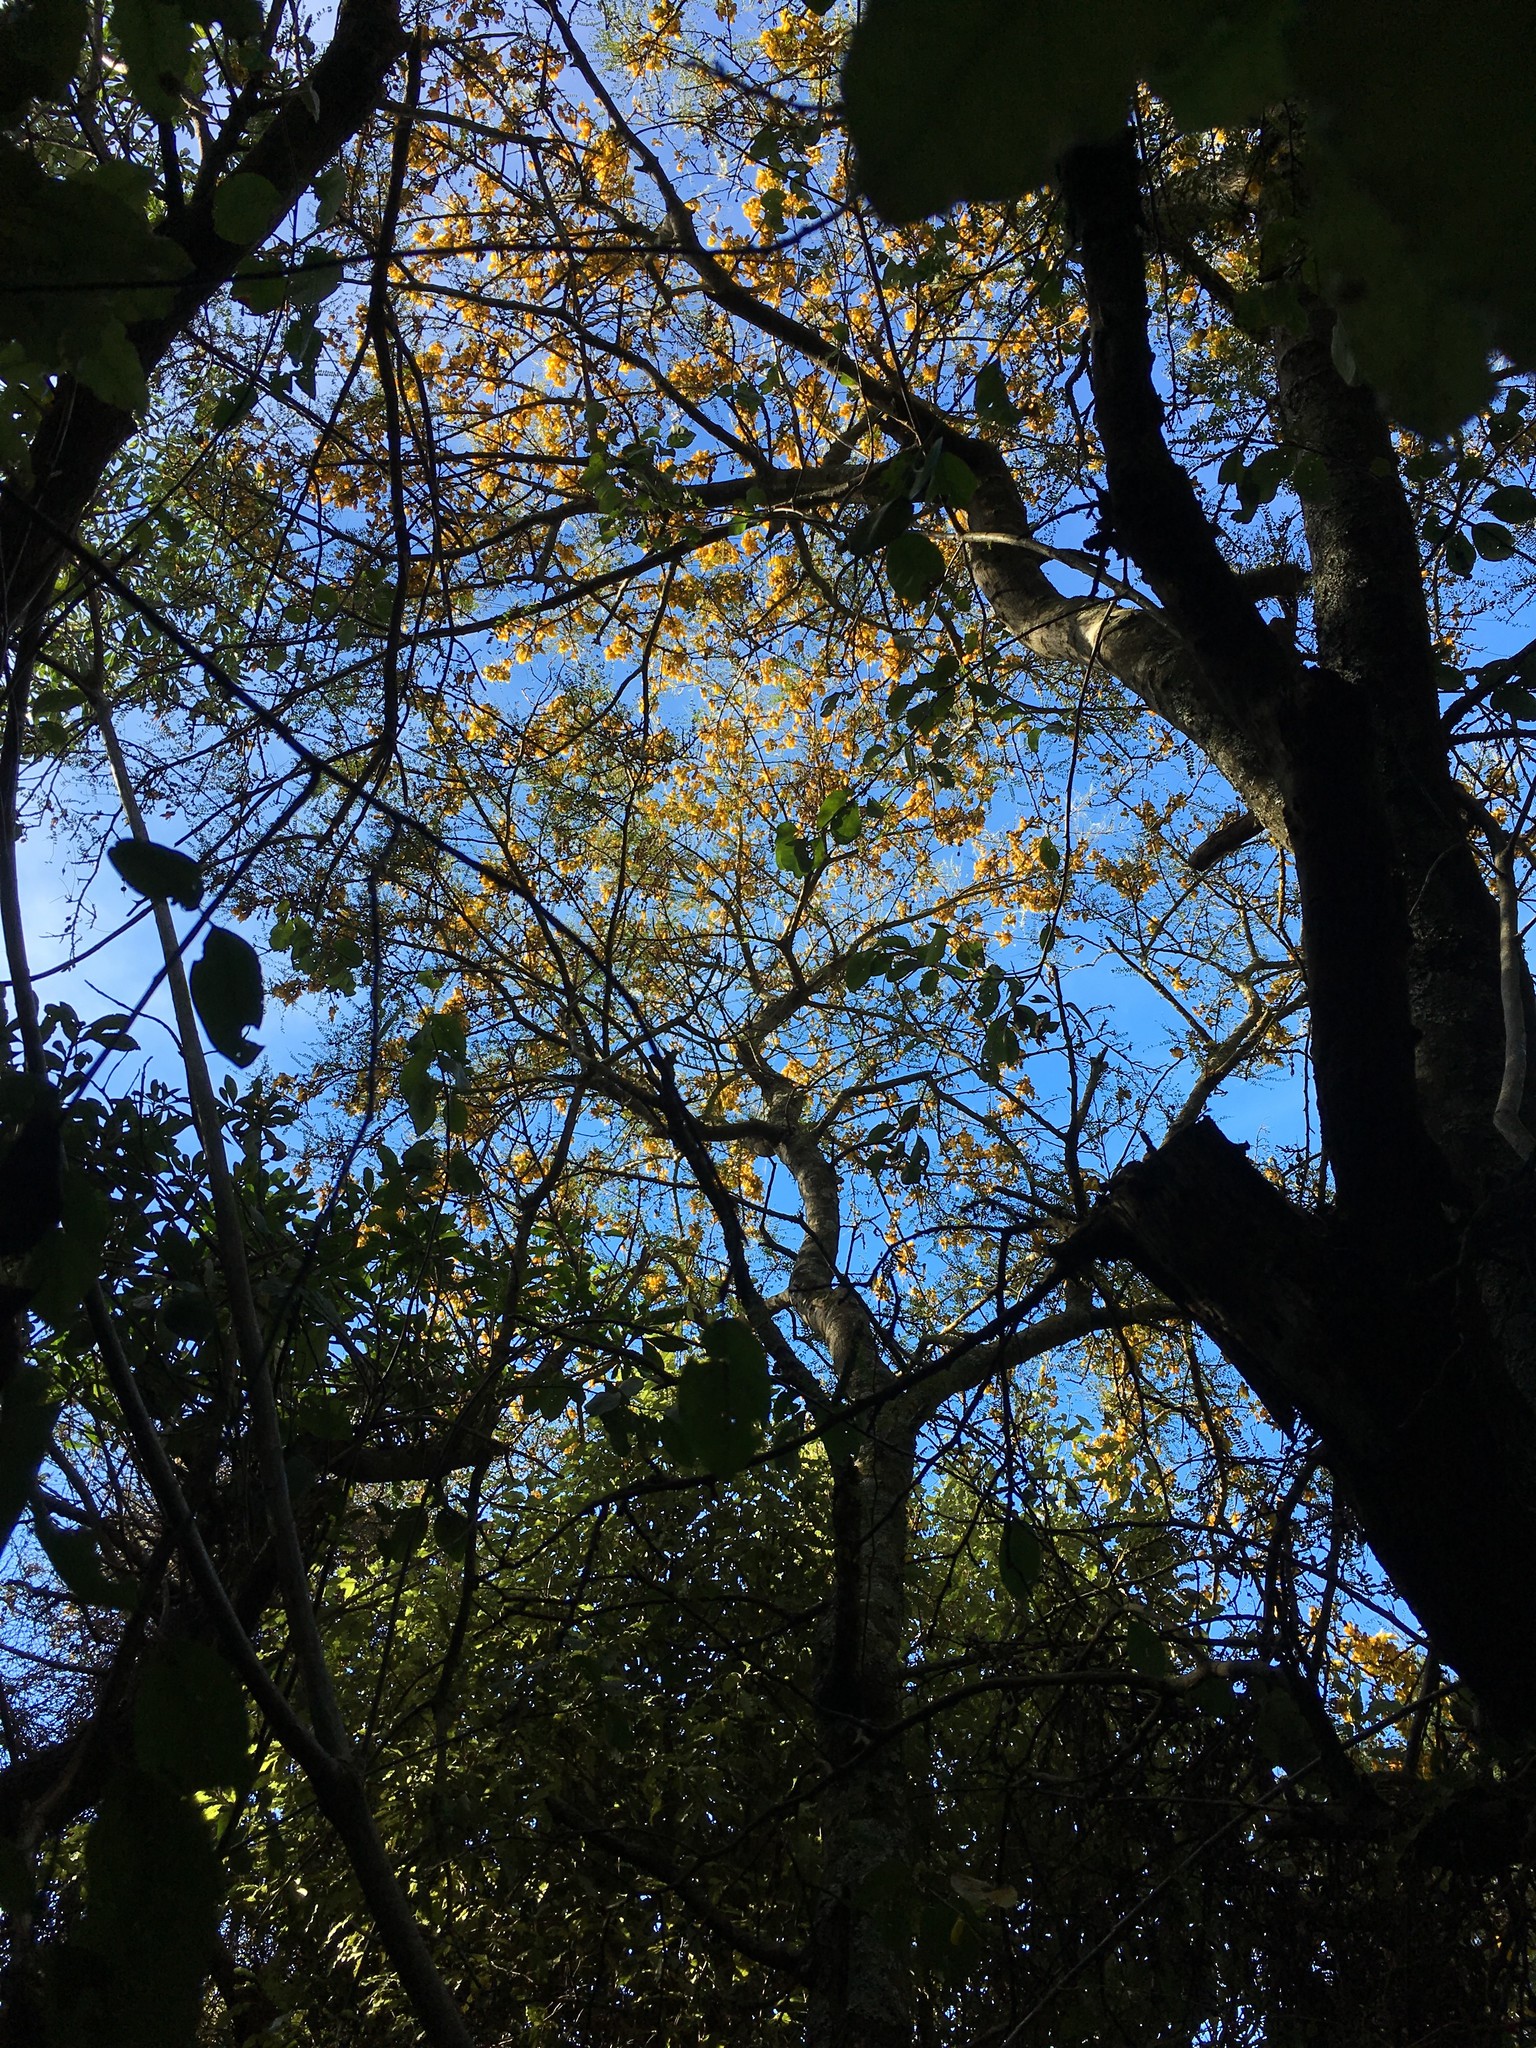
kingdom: Plantae
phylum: Tracheophyta
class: Magnoliopsida
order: Fabales
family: Fabaceae
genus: Sophora
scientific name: Sophora microphylla
